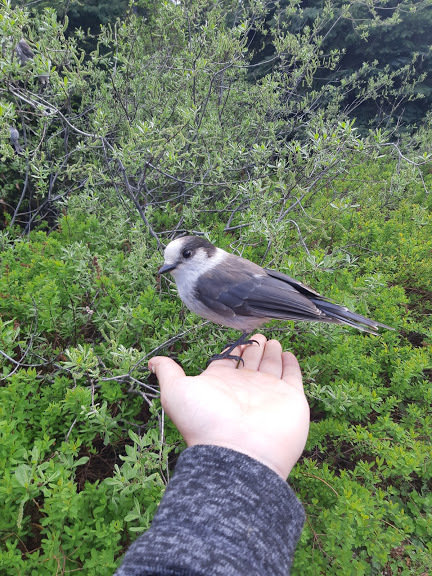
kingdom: Animalia
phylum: Chordata
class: Aves
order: Passeriformes
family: Corvidae
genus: Perisoreus
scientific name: Perisoreus canadensis
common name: Gray jay
